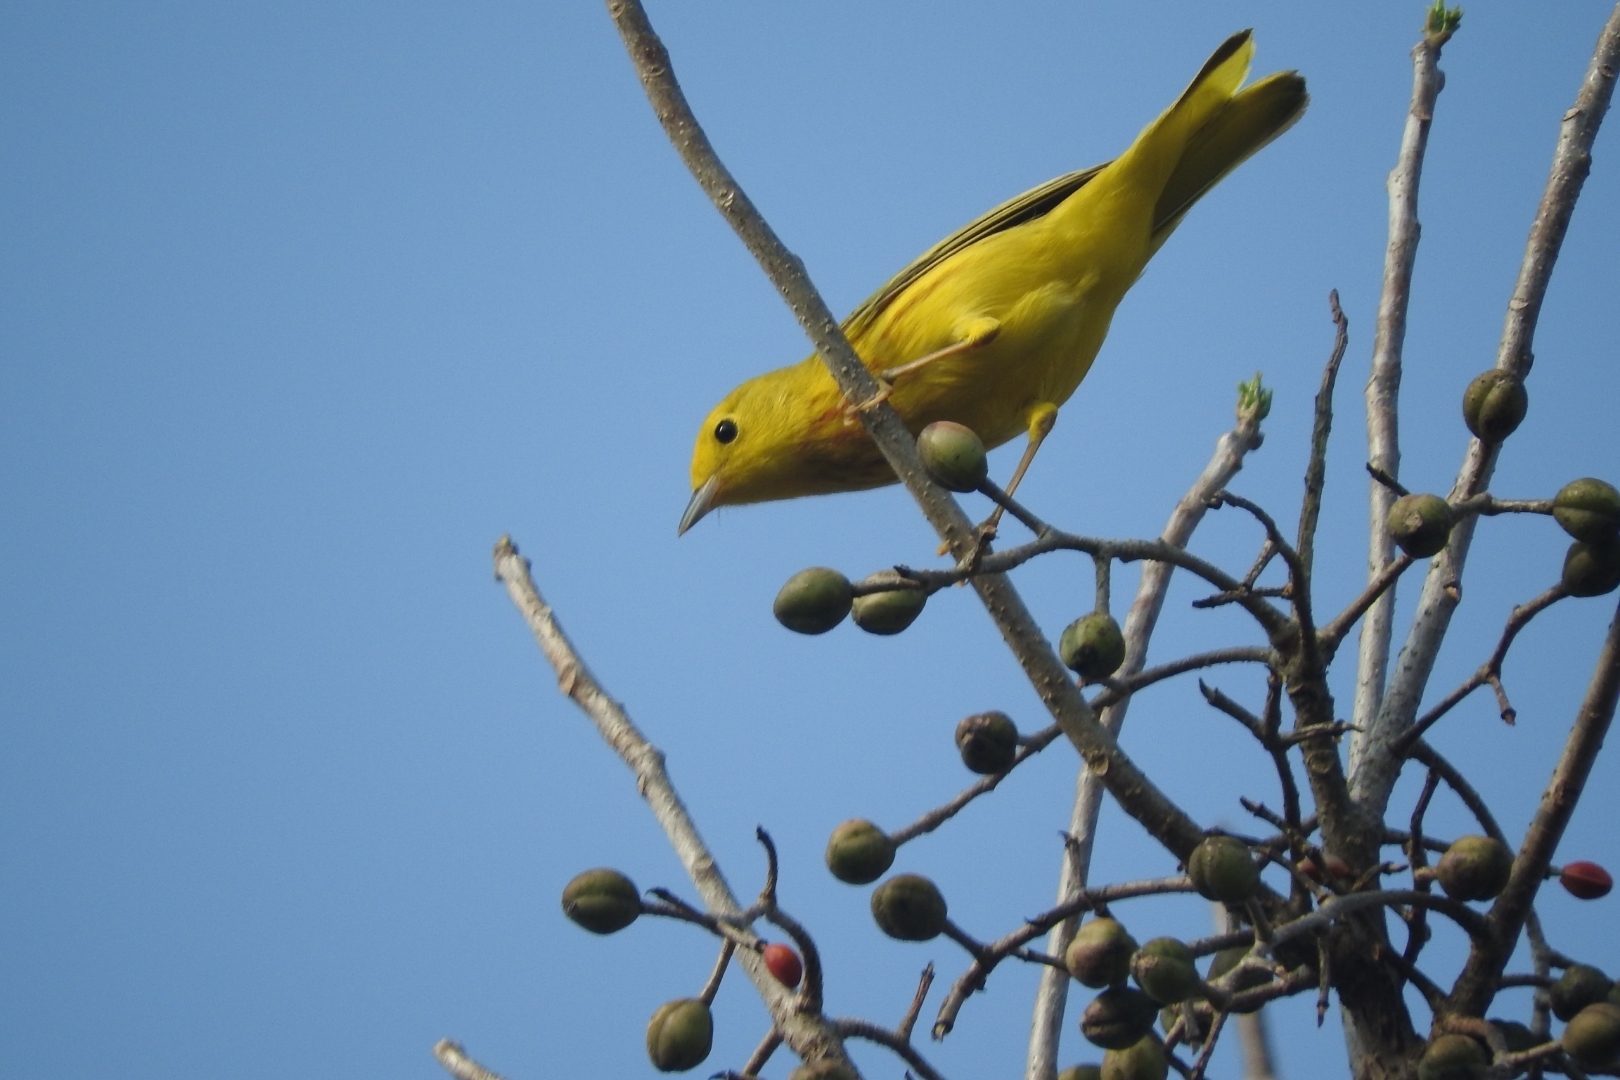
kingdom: Animalia
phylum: Chordata
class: Aves
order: Passeriformes
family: Parulidae
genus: Setophaga
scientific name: Setophaga petechia
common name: Yellow warbler
